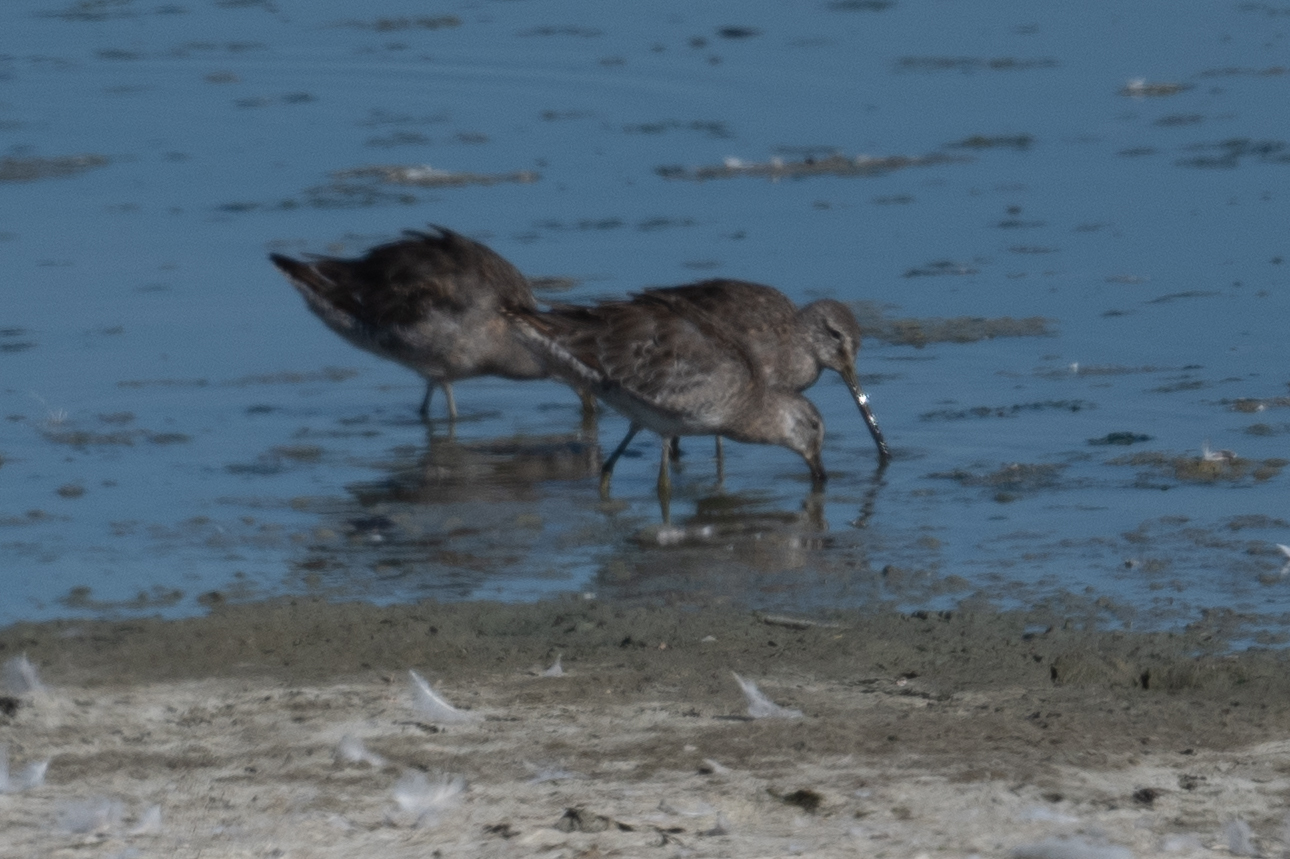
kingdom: Animalia
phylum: Chordata
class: Aves
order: Charadriiformes
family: Scolopacidae
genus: Limnodromus
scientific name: Limnodromus scolopaceus
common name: Long-billed dowitcher
